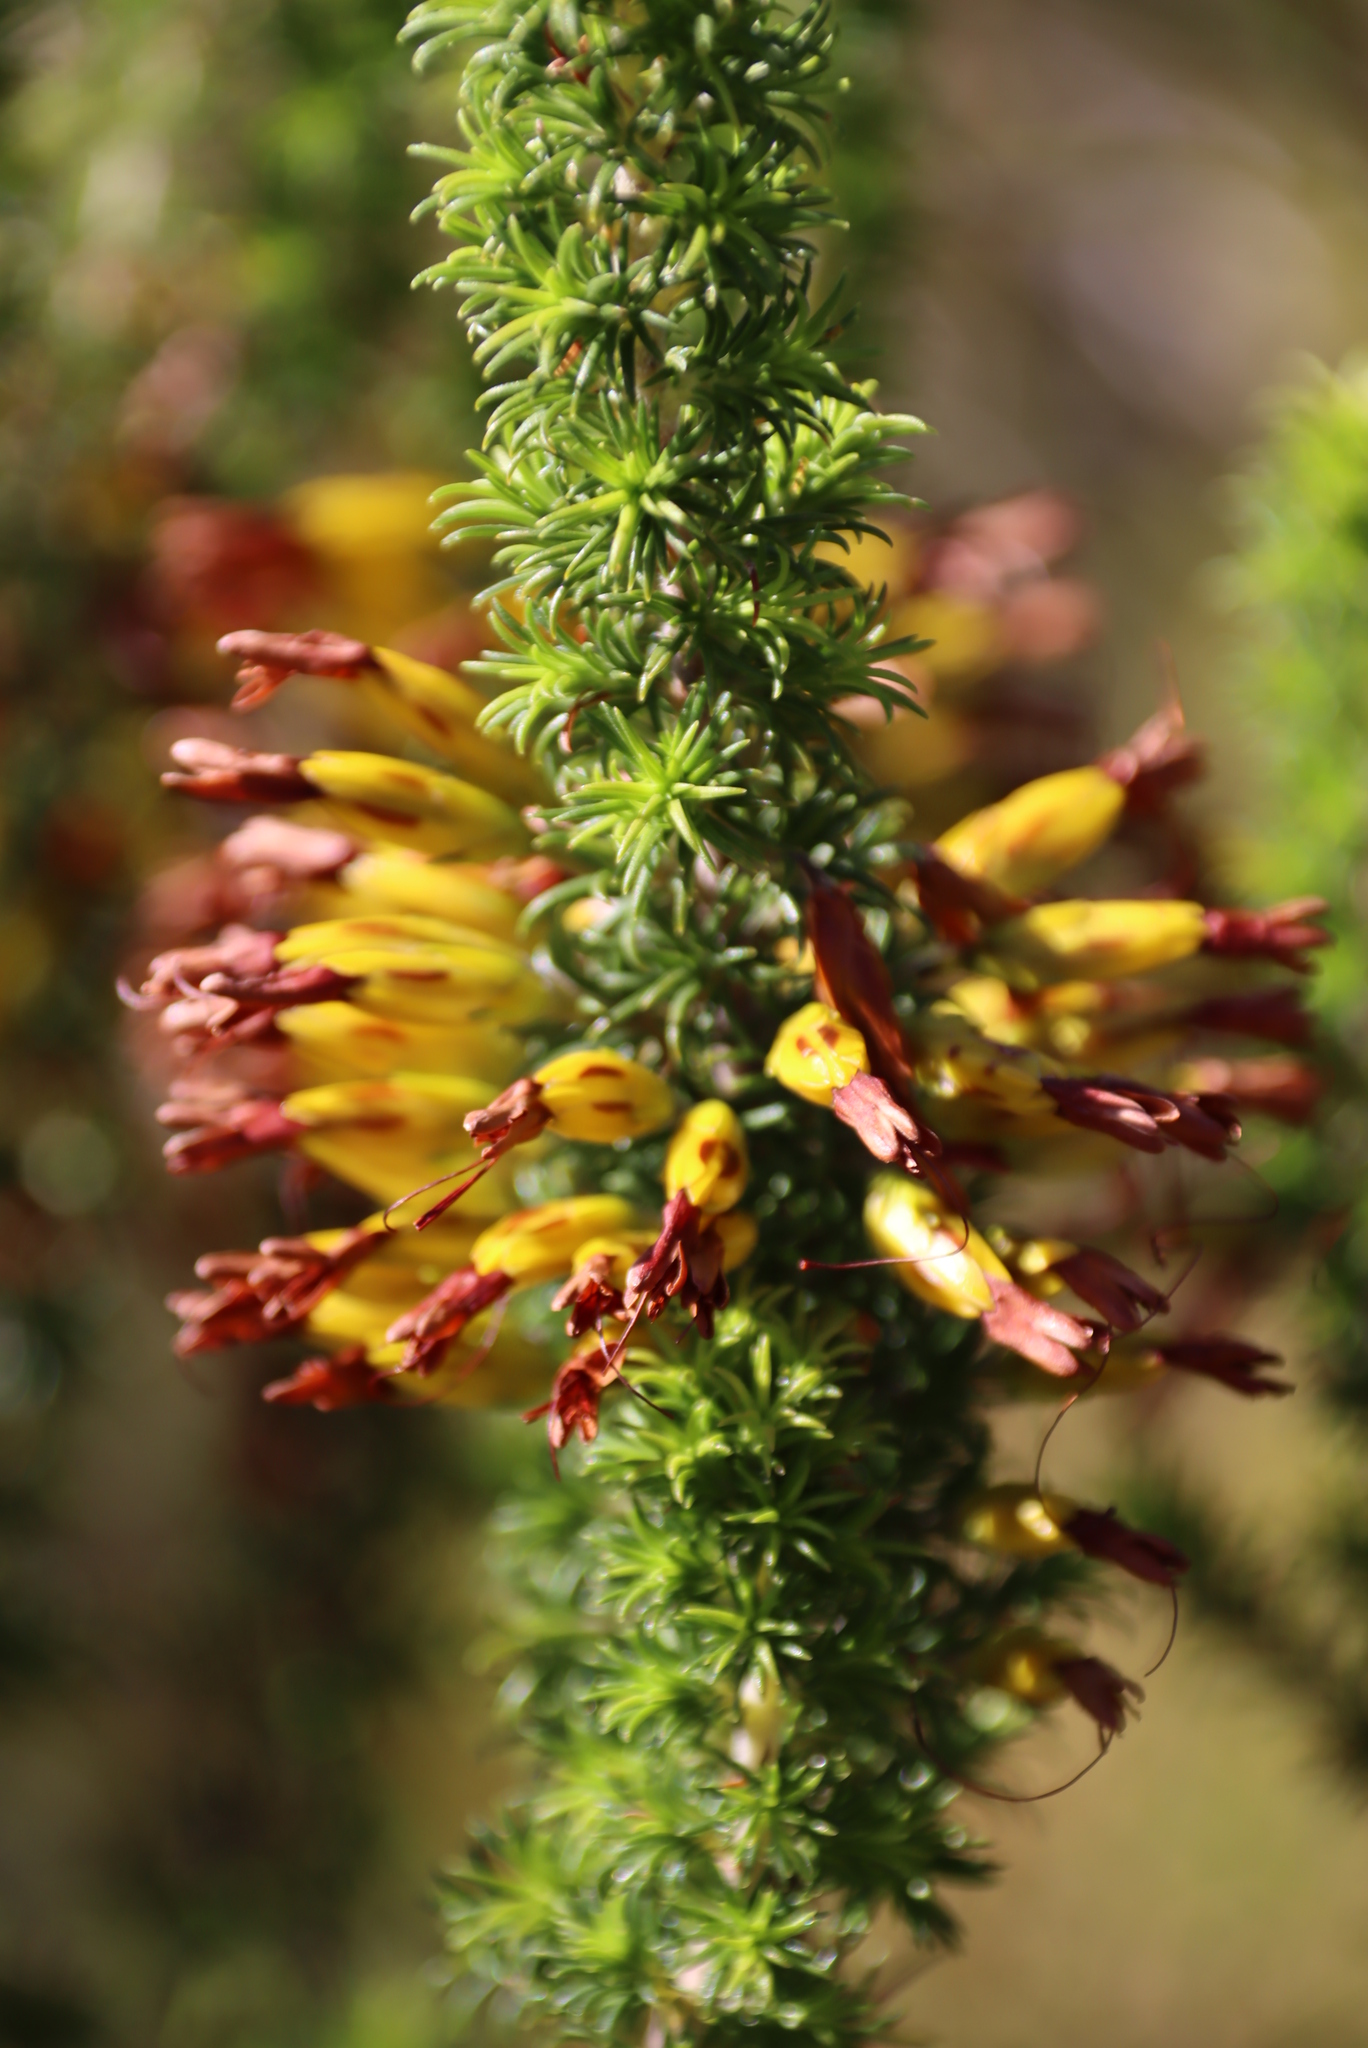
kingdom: Plantae
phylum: Tracheophyta
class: Magnoliopsida
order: Ericales
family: Ericaceae
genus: Erica
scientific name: Erica coccinea
